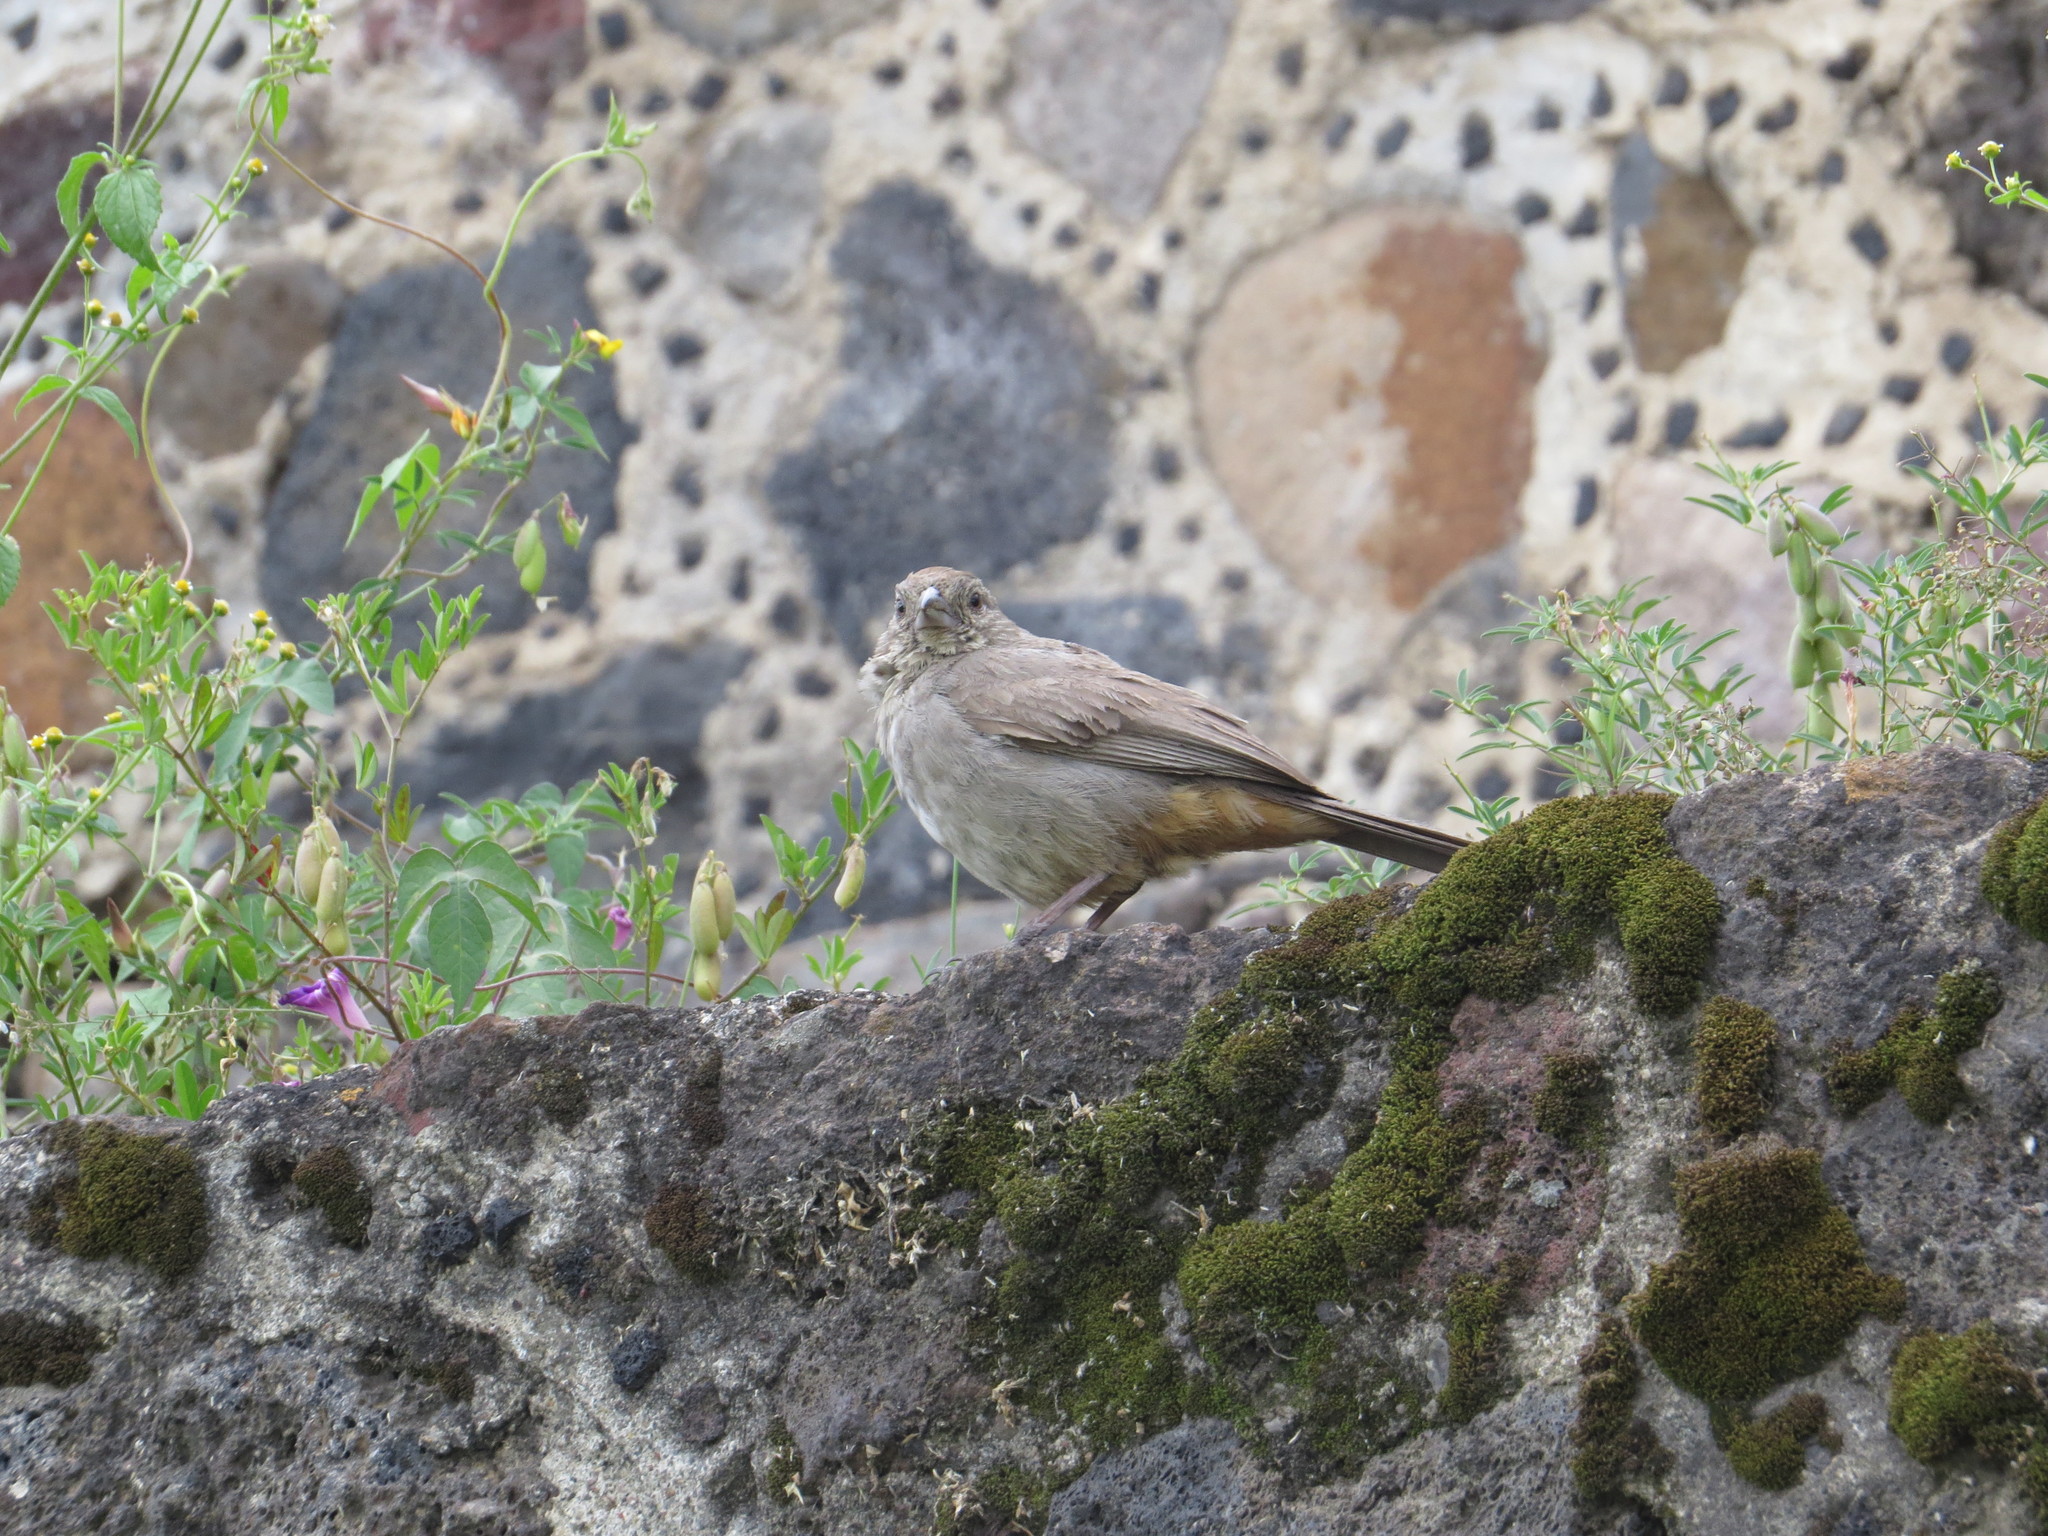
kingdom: Animalia
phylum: Chordata
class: Aves
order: Passeriformes
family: Passerellidae
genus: Melozone
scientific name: Melozone fusca
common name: Canyon towhee
